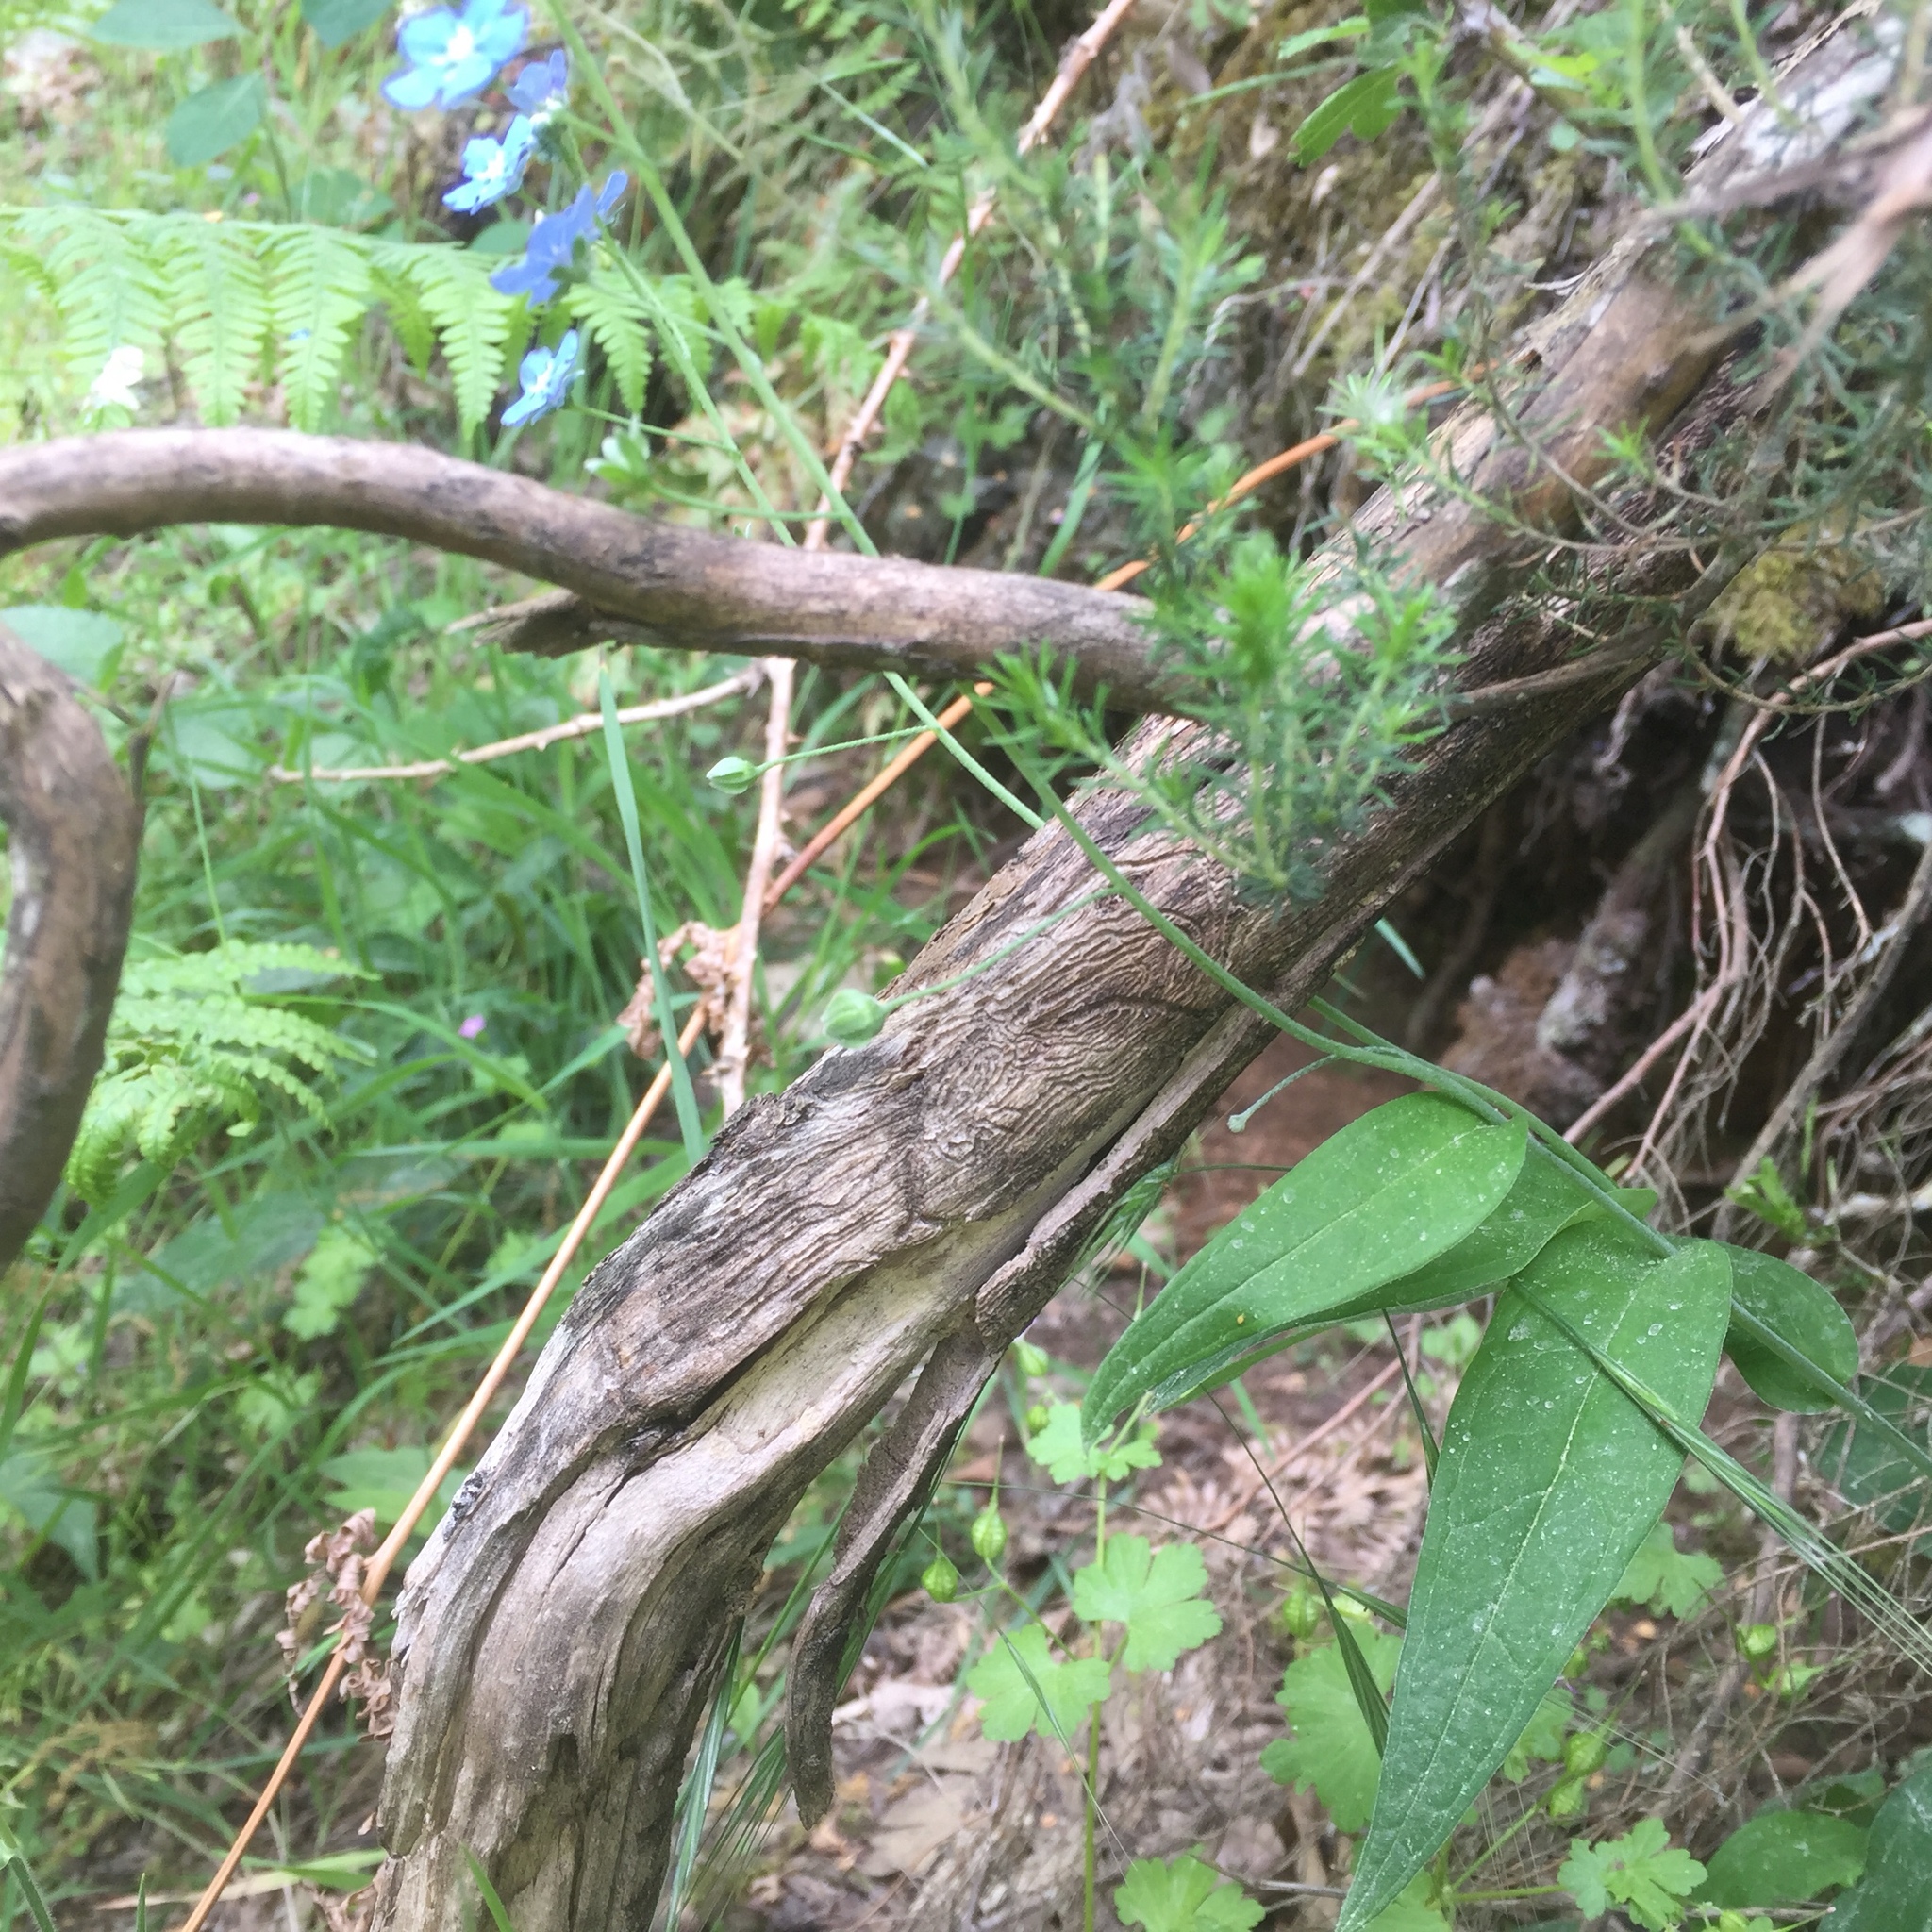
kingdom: Plantae
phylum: Tracheophyta
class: Magnoliopsida
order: Boraginales
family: Boraginaceae
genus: Omphalodes
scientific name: Omphalodes nitida
